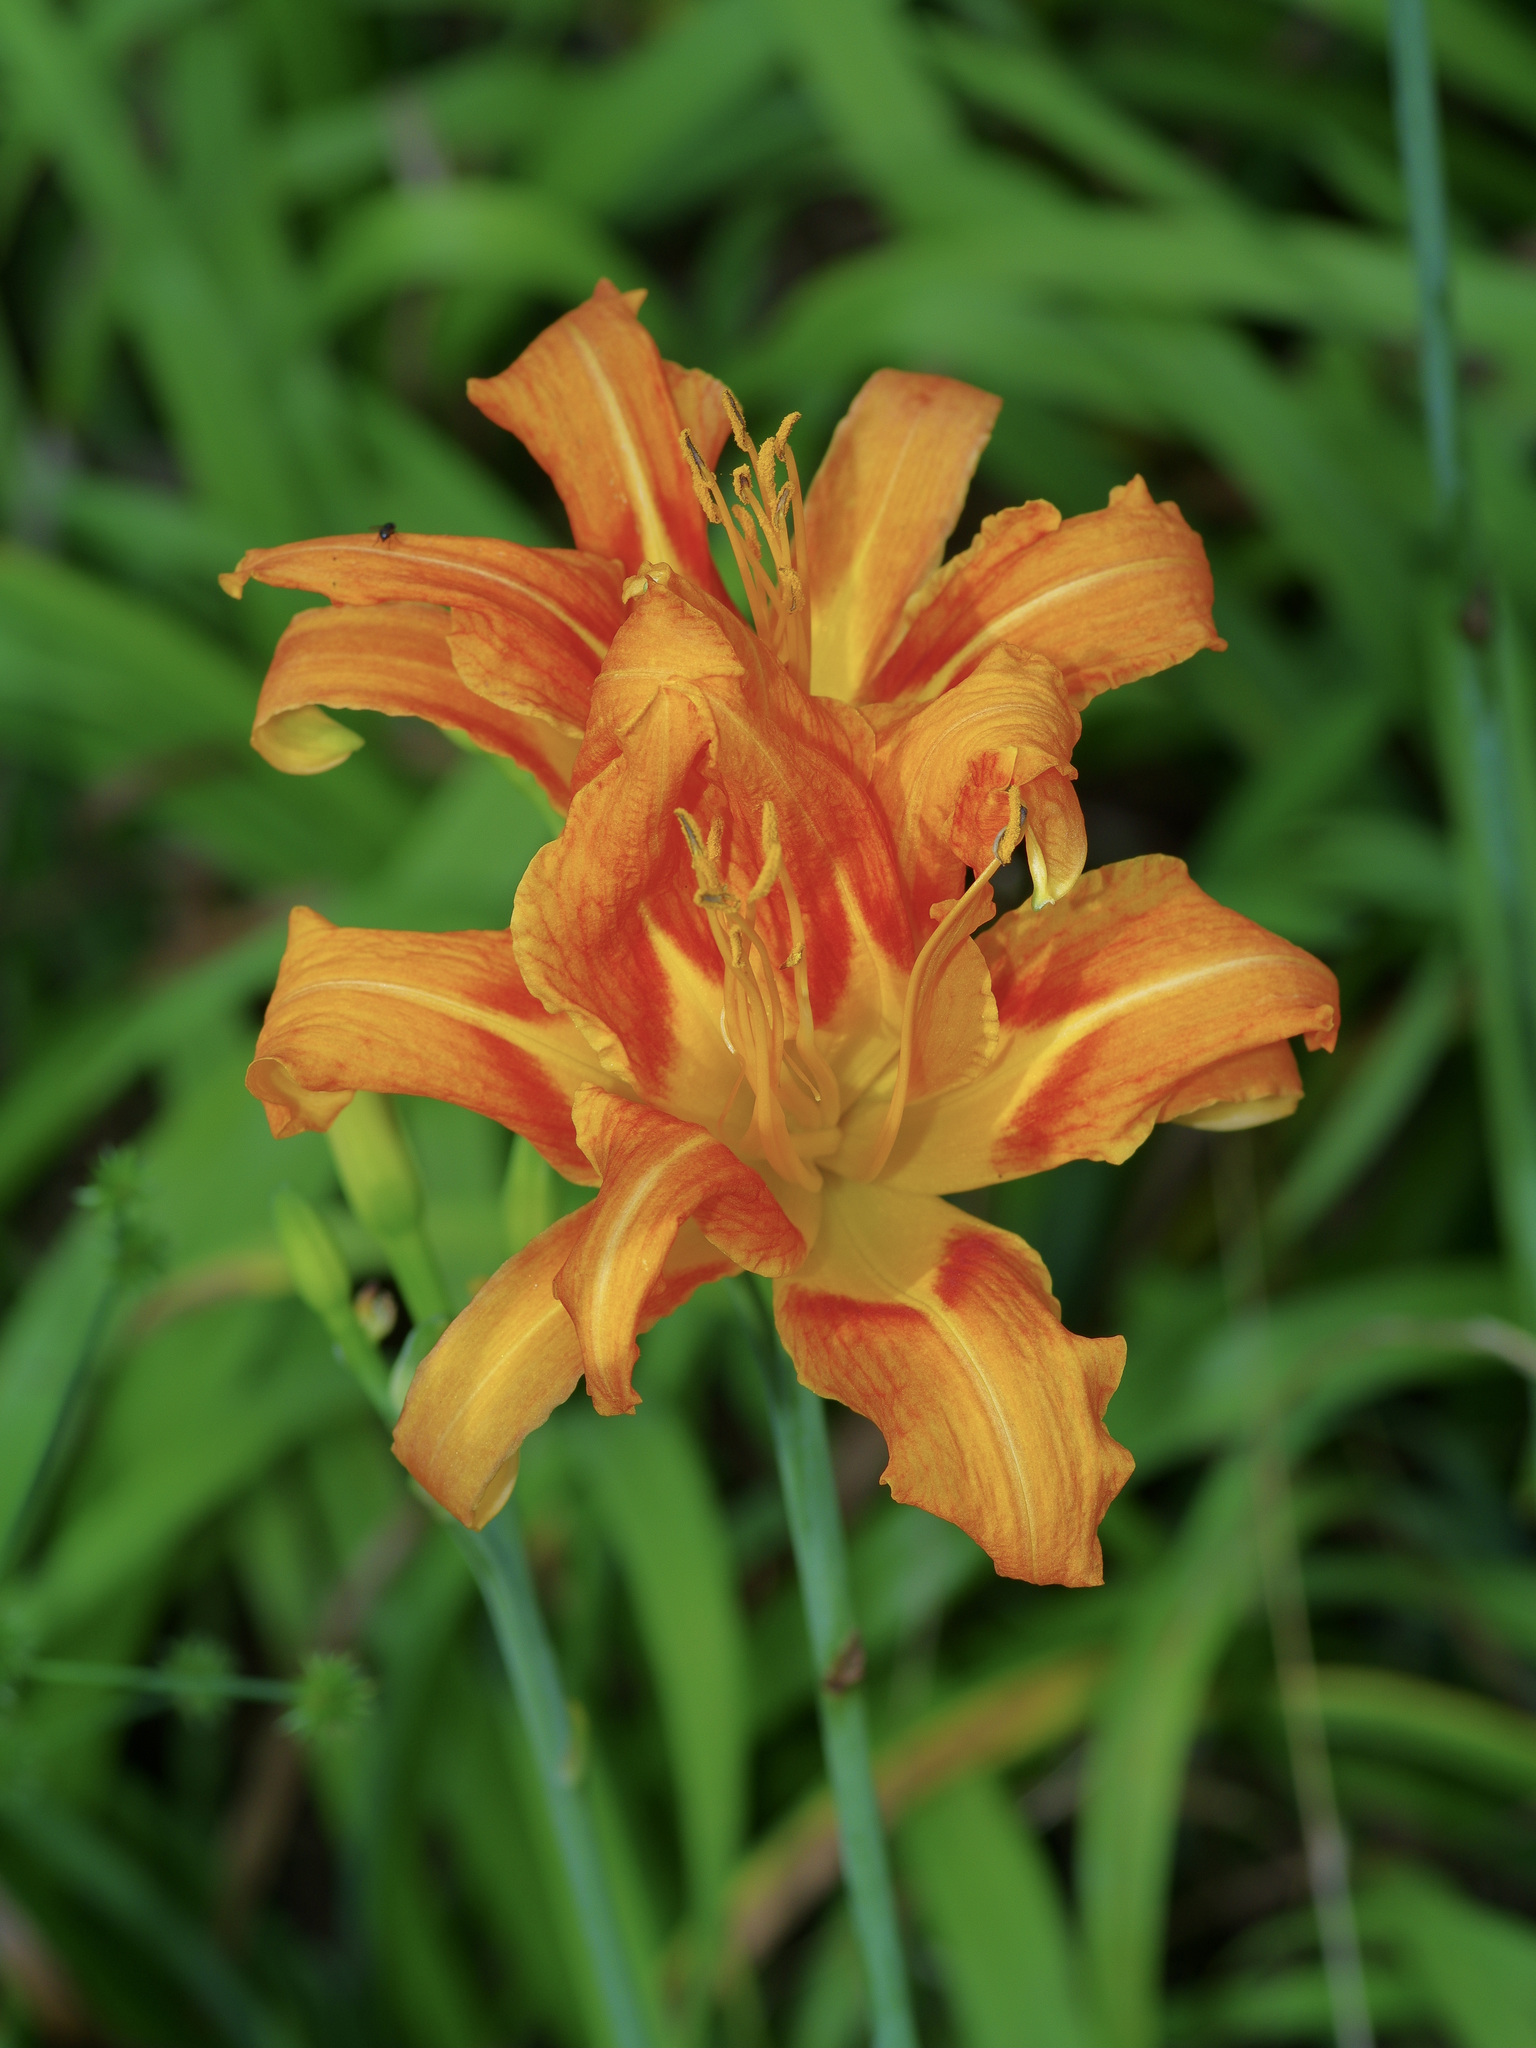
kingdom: Plantae
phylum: Tracheophyta
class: Liliopsida
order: Asparagales
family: Asphodelaceae
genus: Hemerocallis
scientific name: Hemerocallis fulva
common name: Orange day-lily
